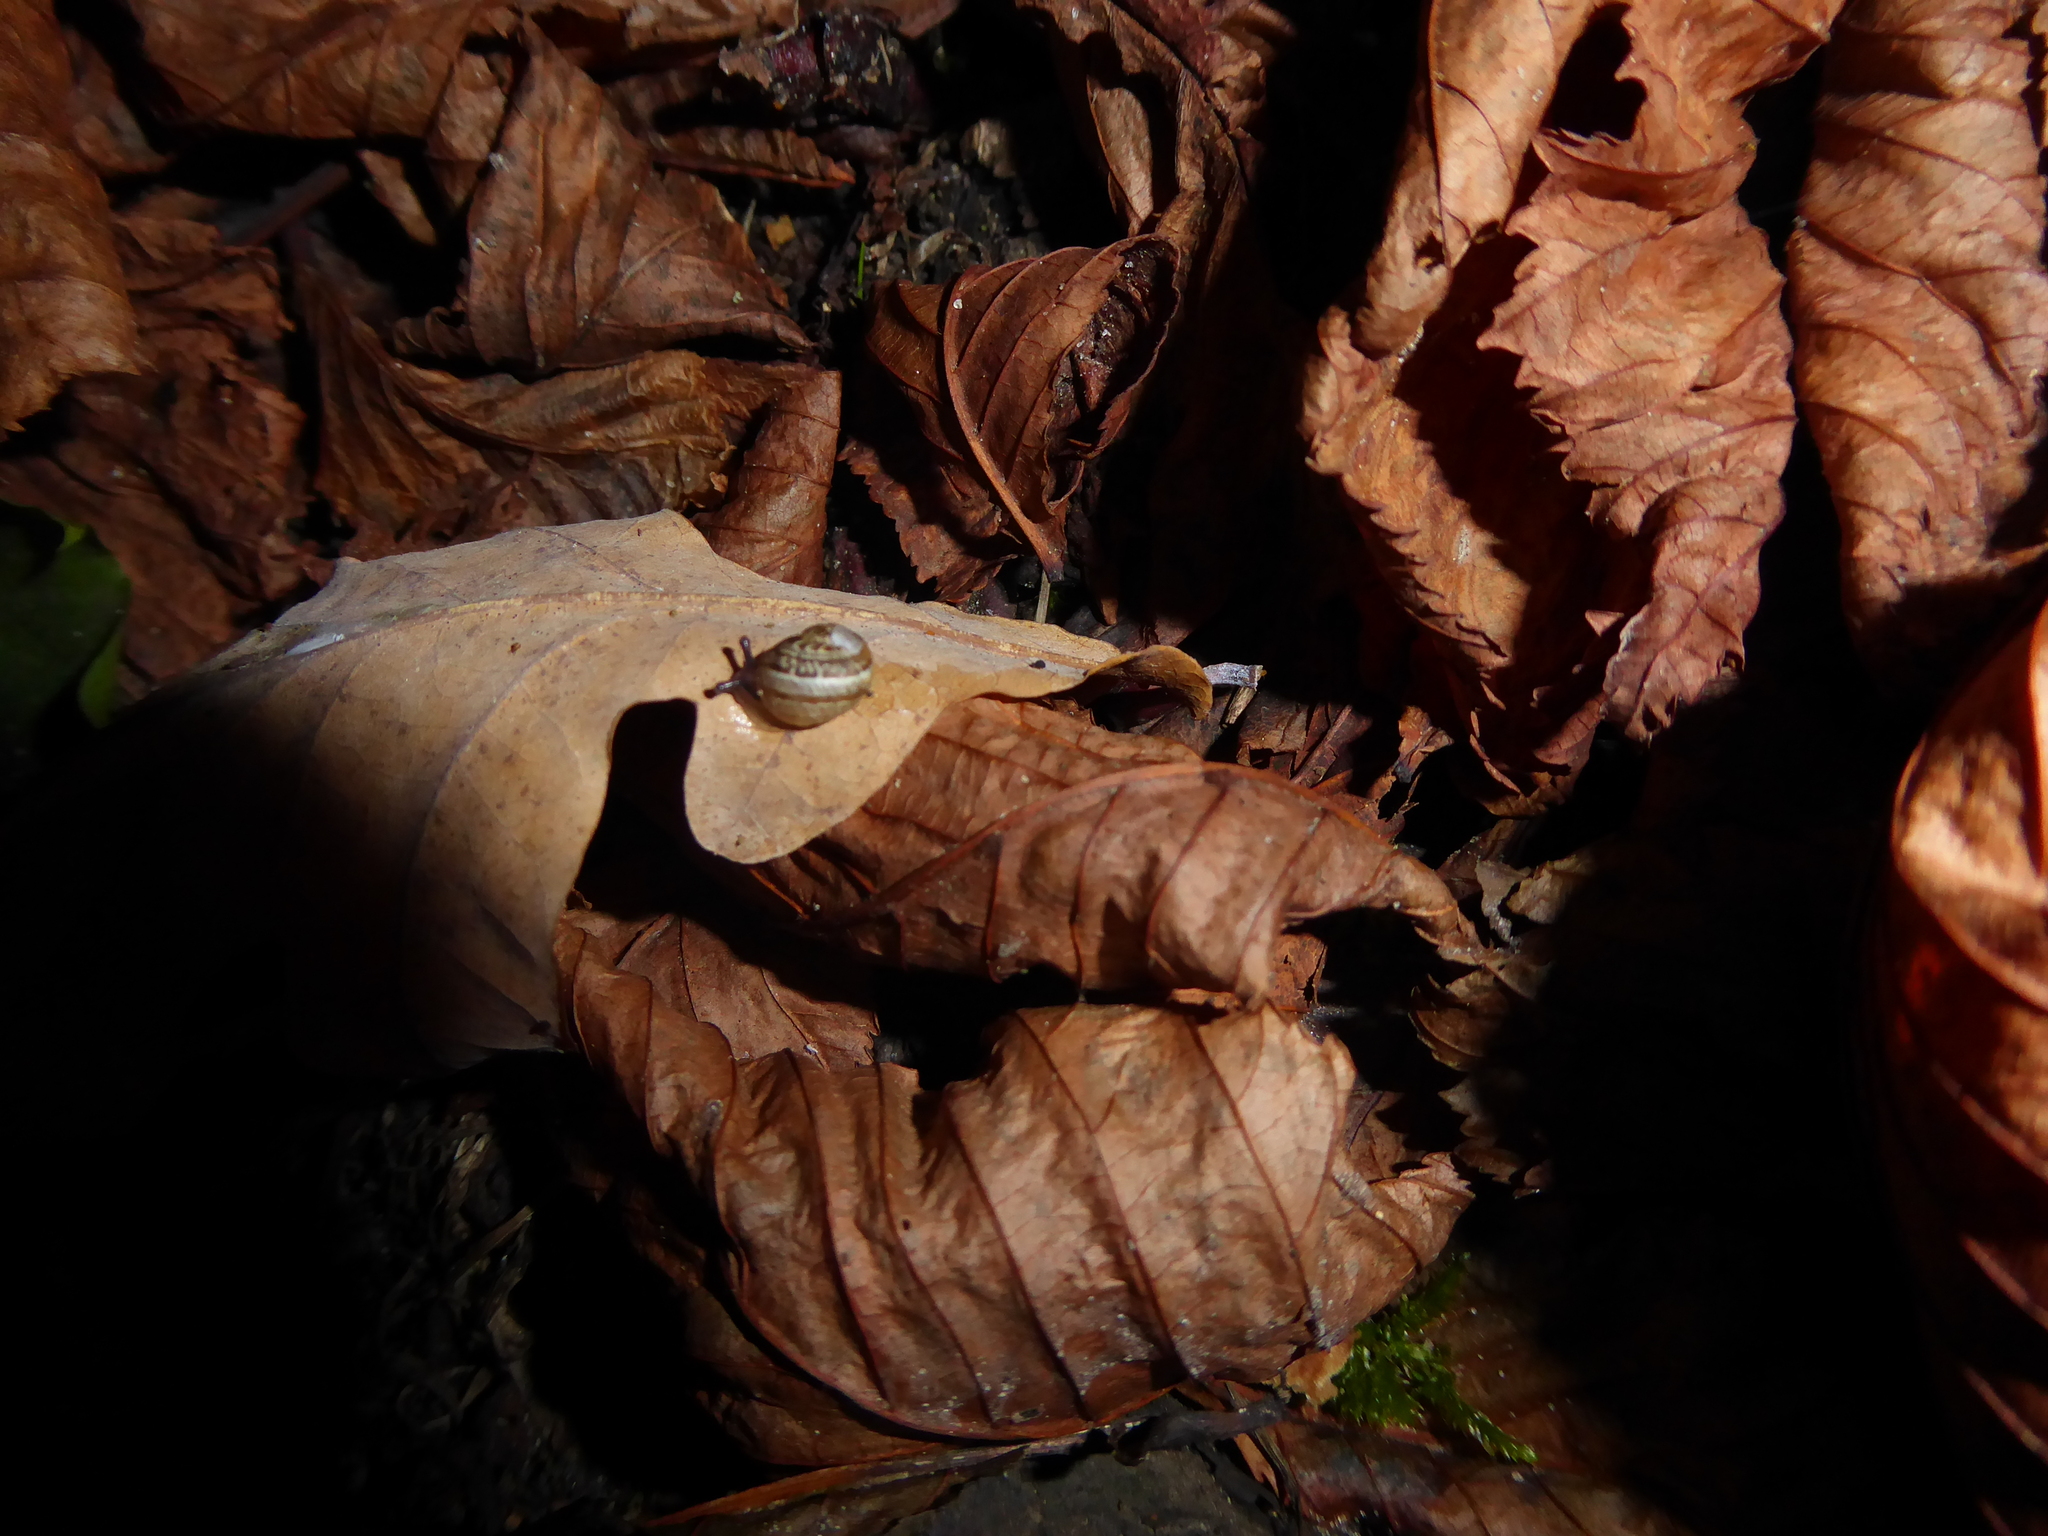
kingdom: Animalia
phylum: Mollusca
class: Gastropoda
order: Stylommatophora
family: Helicidae
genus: Cornu
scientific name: Cornu aspersum
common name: Brown garden snail
